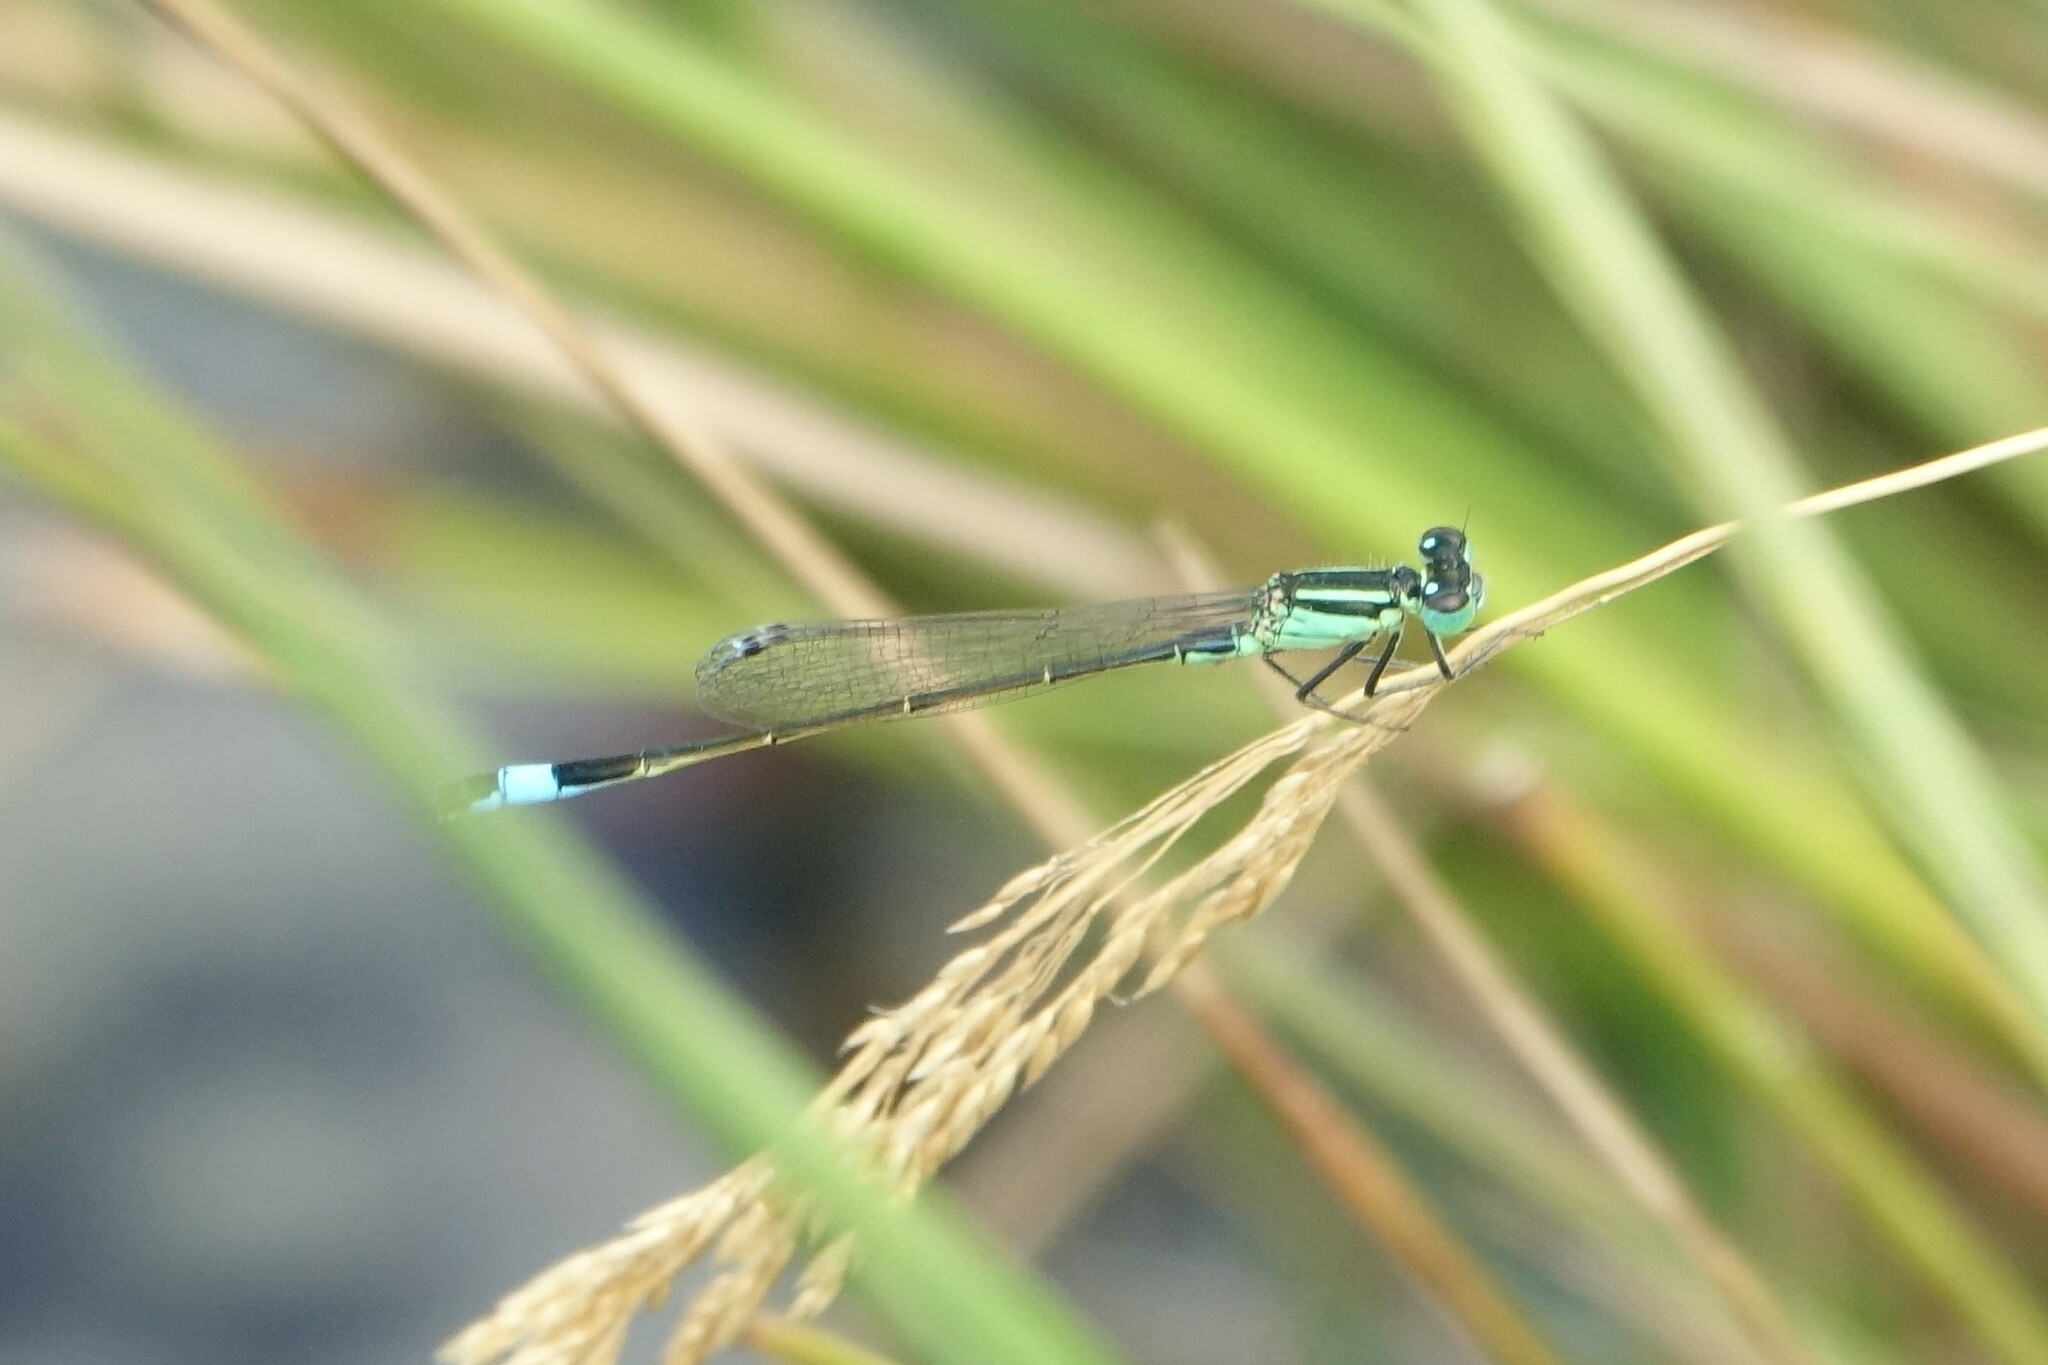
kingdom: Animalia
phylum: Arthropoda
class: Insecta
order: Odonata
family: Coenagrionidae
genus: Ischnura
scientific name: Ischnura elegans
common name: Blue-tailed damselfly
